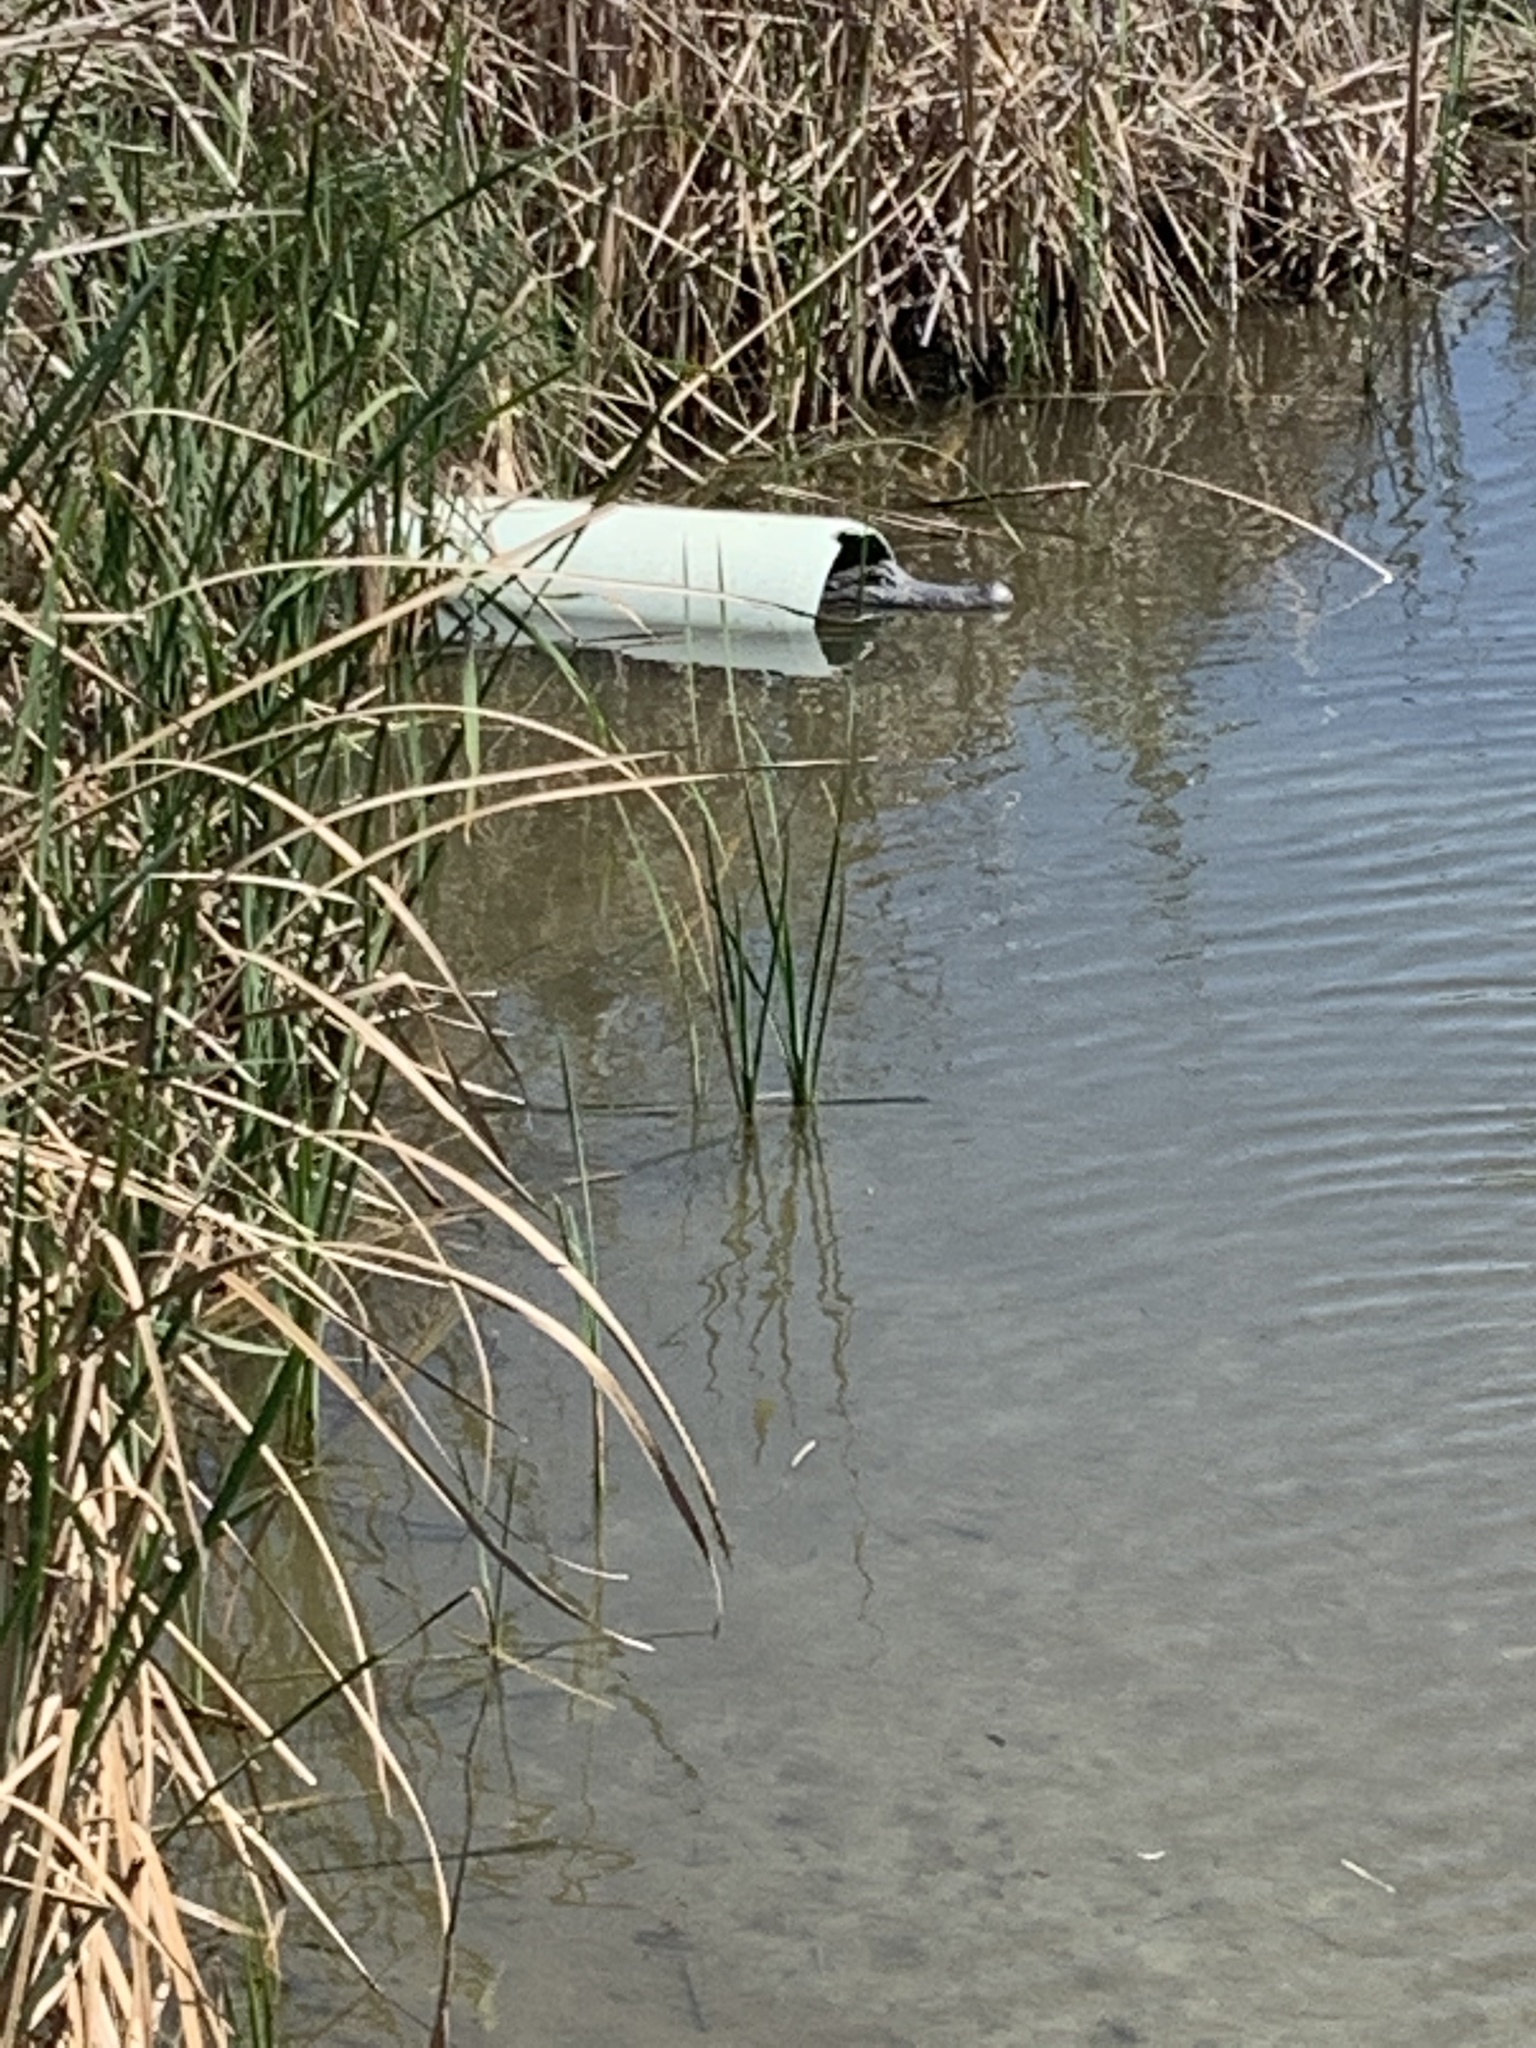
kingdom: Animalia
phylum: Chordata
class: Crocodylia
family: Alligatoridae
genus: Alligator
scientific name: Alligator mississippiensis
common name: American alligator
